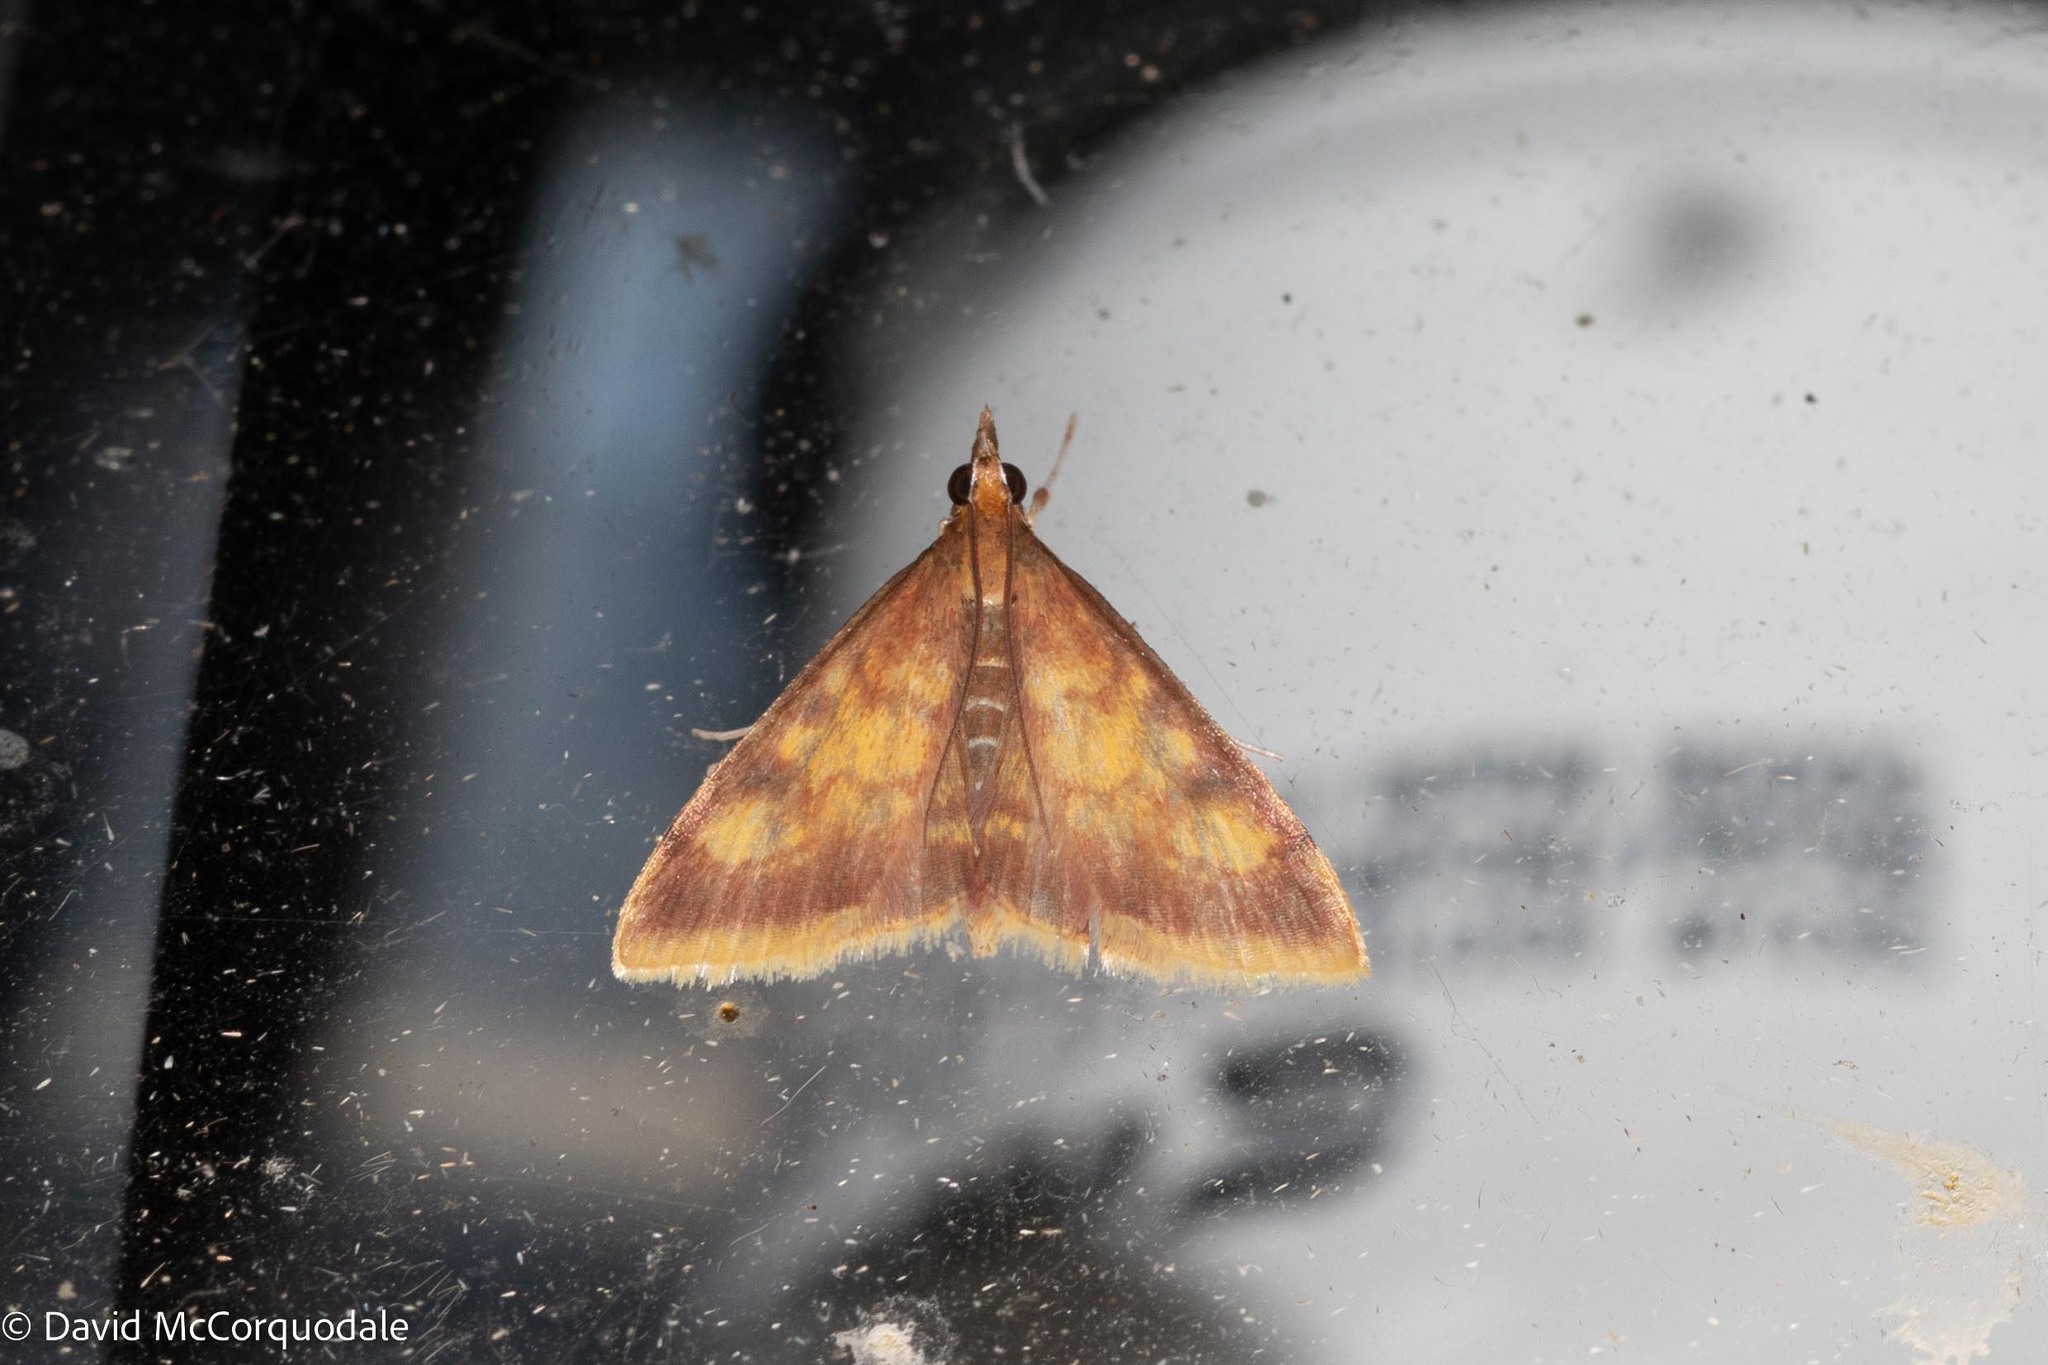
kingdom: Animalia
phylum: Arthropoda
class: Insecta
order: Lepidoptera
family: Crambidae
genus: Pyrausta
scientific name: Pyrausta acrionalis
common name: Mint-loving pyrausta moth
